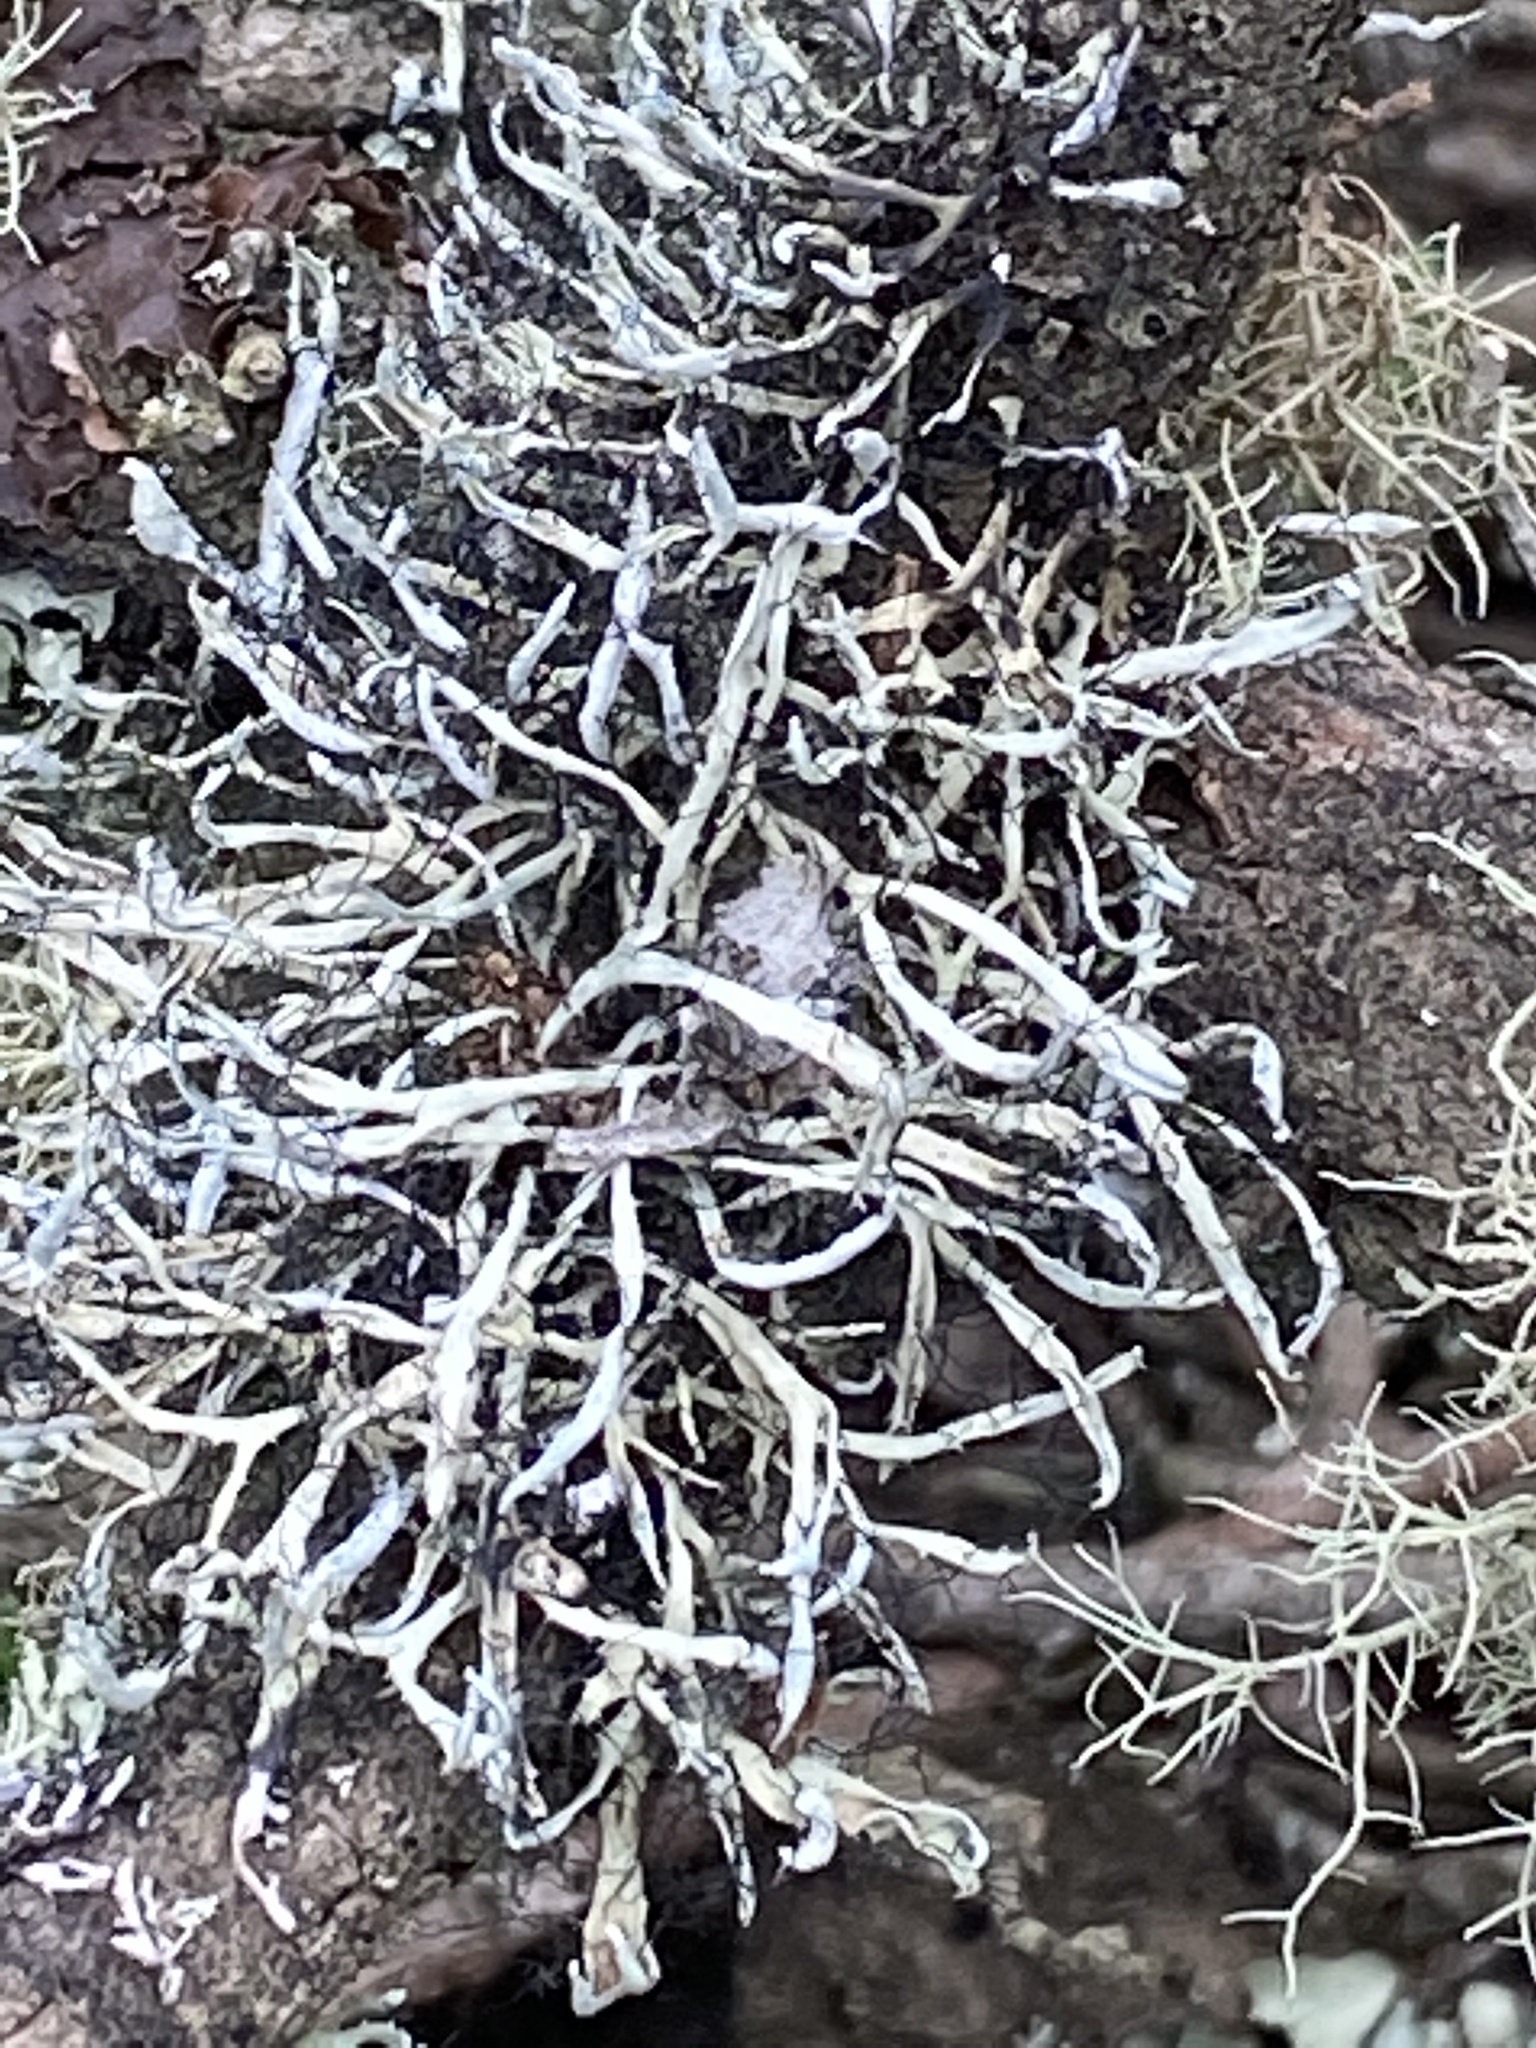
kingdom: Fungi
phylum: Ascomycota
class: Lecanoromycetes
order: Caliciales
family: Physciaceae
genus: Leucodermia
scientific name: Leucodermia leucomelos
